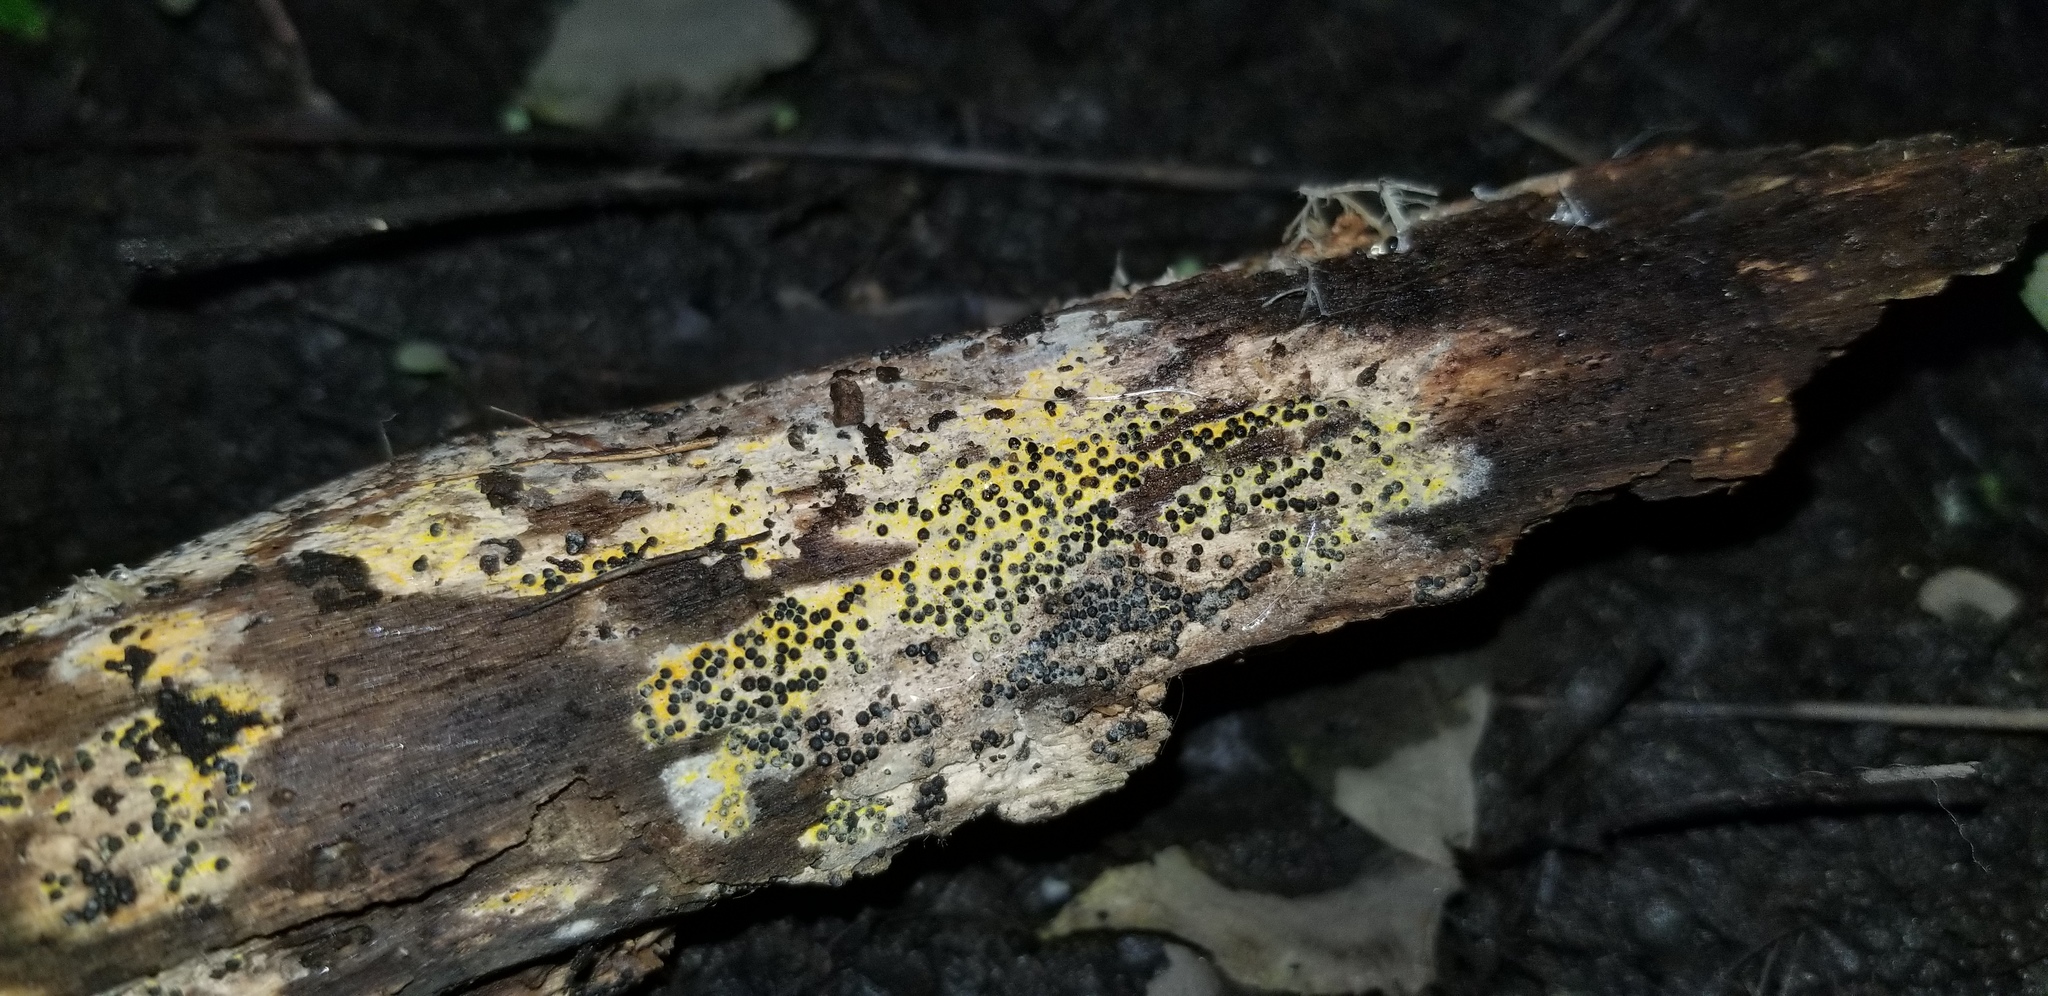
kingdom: Fungi
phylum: Ascomycota
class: Sordariomycetes
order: Xylariales
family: Xylariaceae
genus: Rosellinia
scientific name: Rosellinia subiculata
